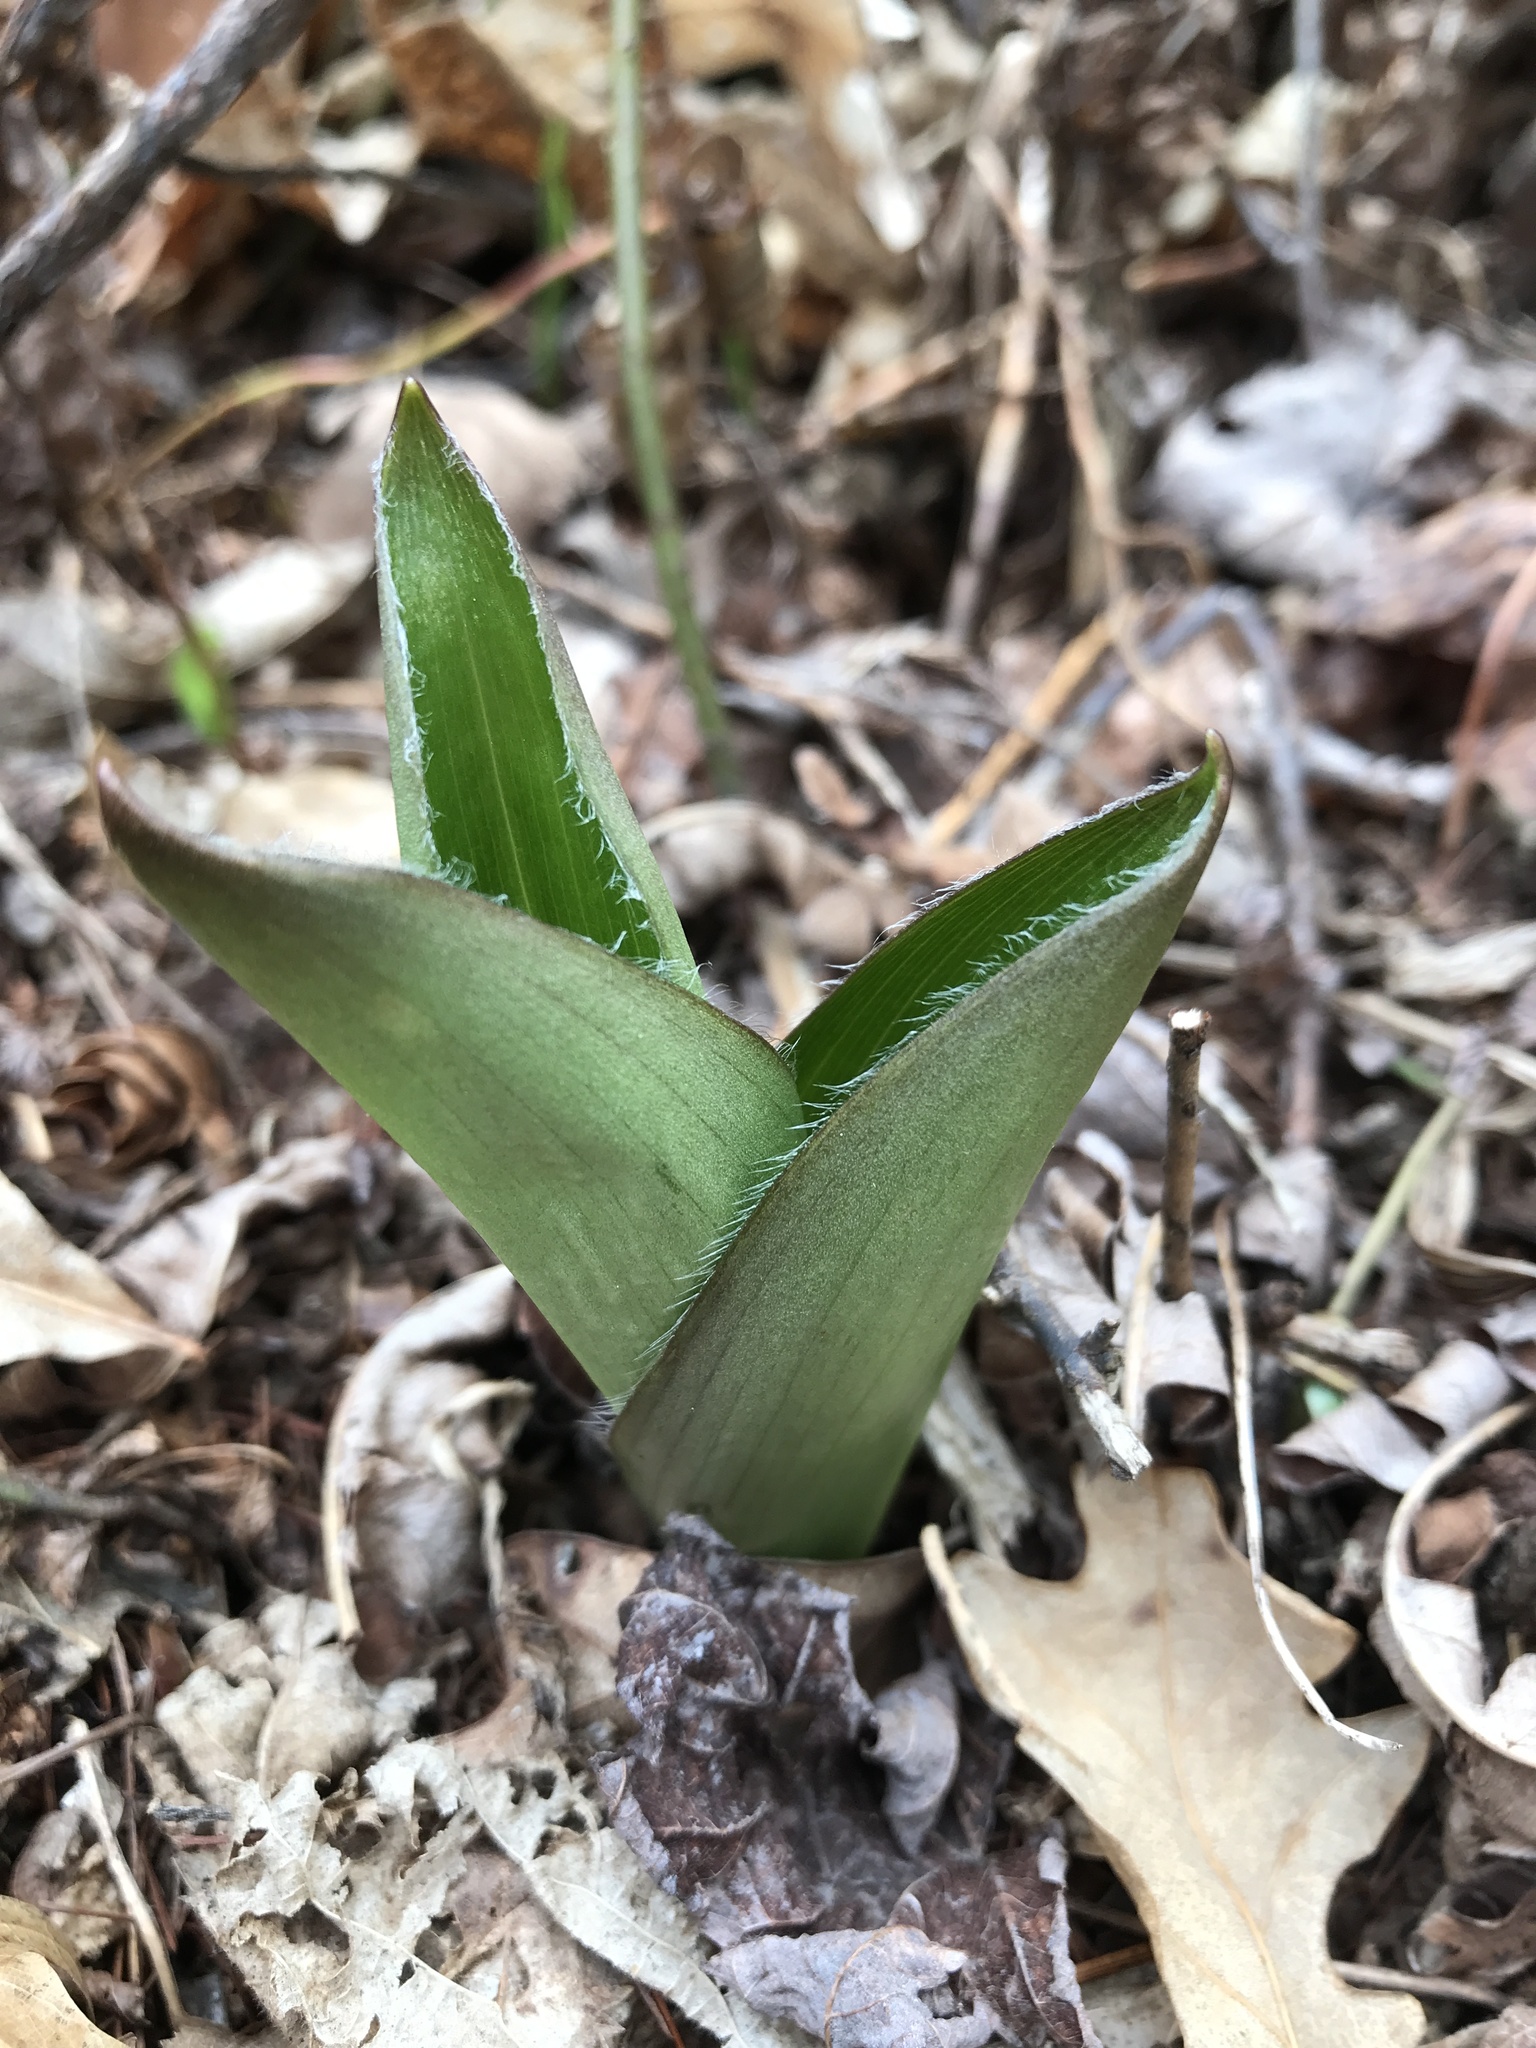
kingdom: Plantae
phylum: Tracheophyta
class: Liliopsida
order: Liliales
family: Liliaceae
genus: Clintonia
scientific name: Clintonia borealis
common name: Yellow clintonia
